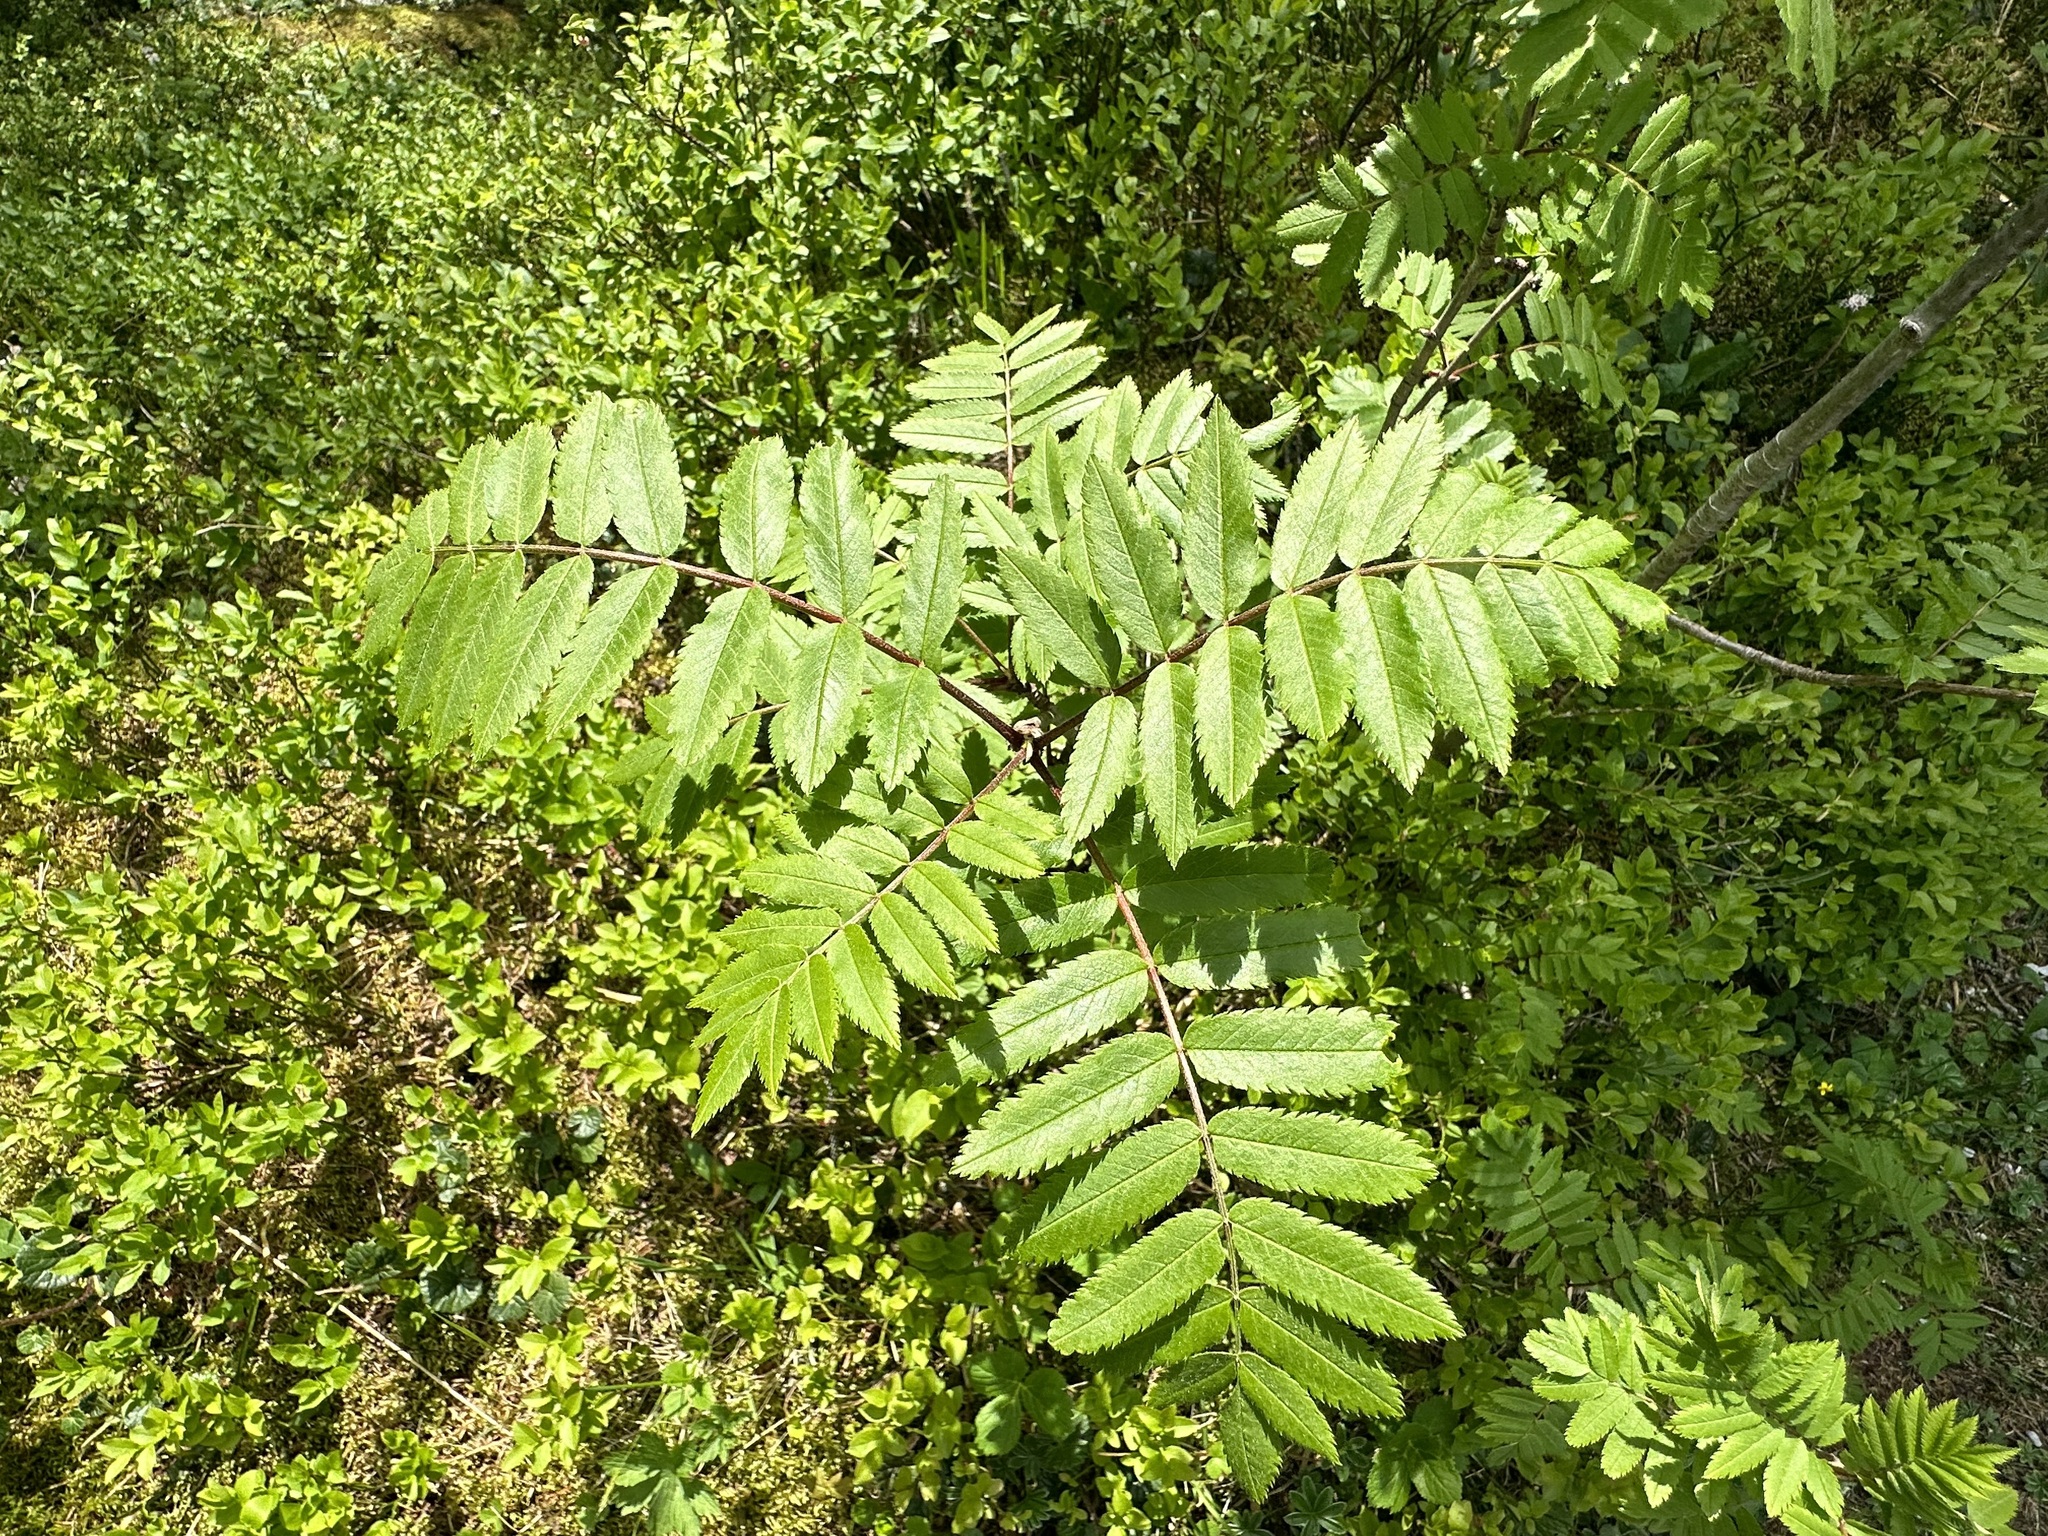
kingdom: Plantae
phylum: Tracheophyta
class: Magnoliopsida
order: Rosales
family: Rosaceae
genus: Sorbus
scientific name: Sorbus aucuparia
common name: Rowan
